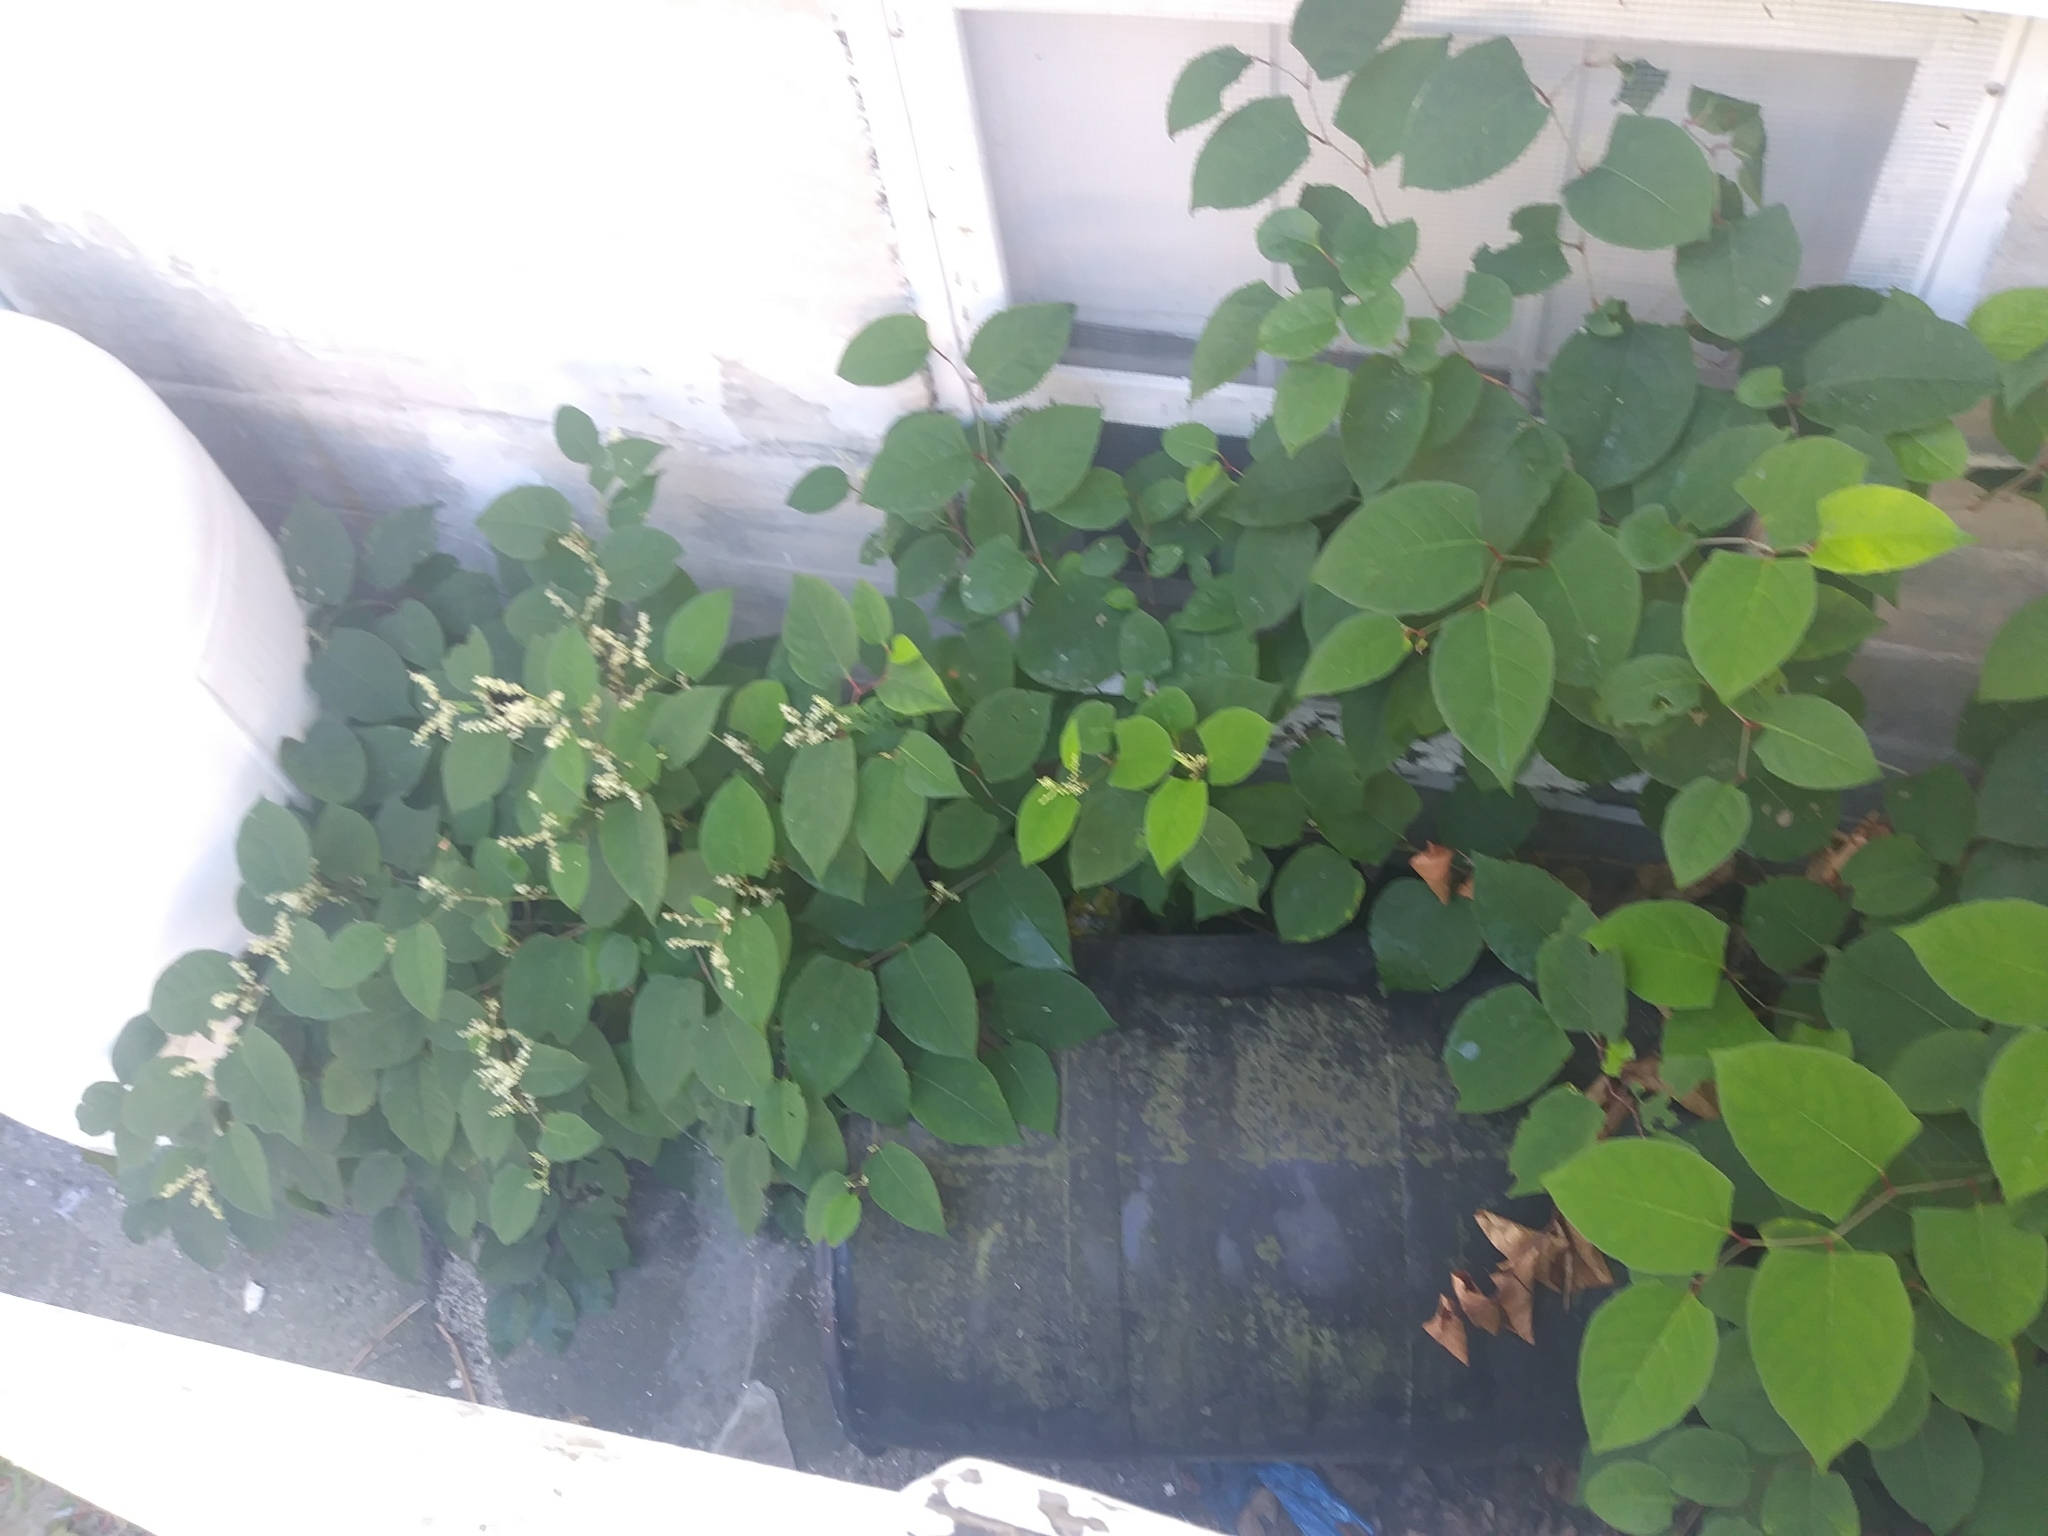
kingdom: Plantae
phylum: Tracheophyta
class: Magnoliopsida
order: Caryophyllales
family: Polygonaceae
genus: Reynoutria
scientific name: Reynoutria japonica
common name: Japanese knotweed
